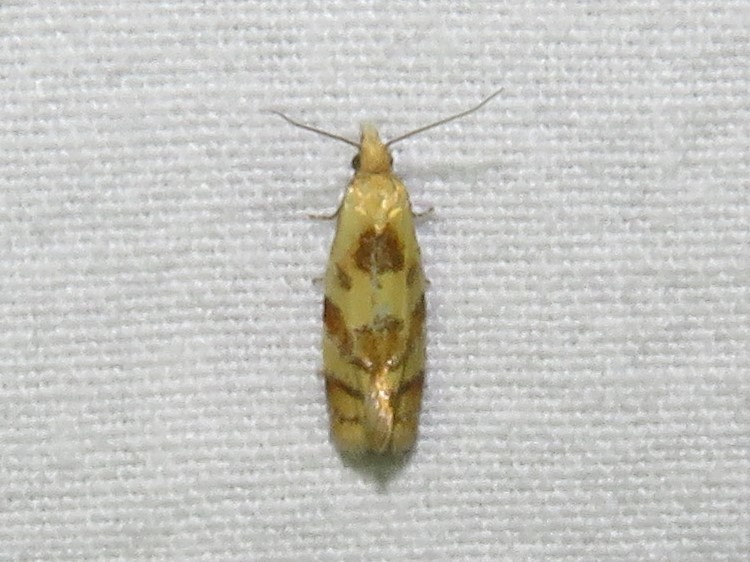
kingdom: Animalia
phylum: Arthropoda
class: Insecta
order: Lepidoptera
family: Tortricidae
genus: Phtheochroa
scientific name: Phtheochroa vitellinana
